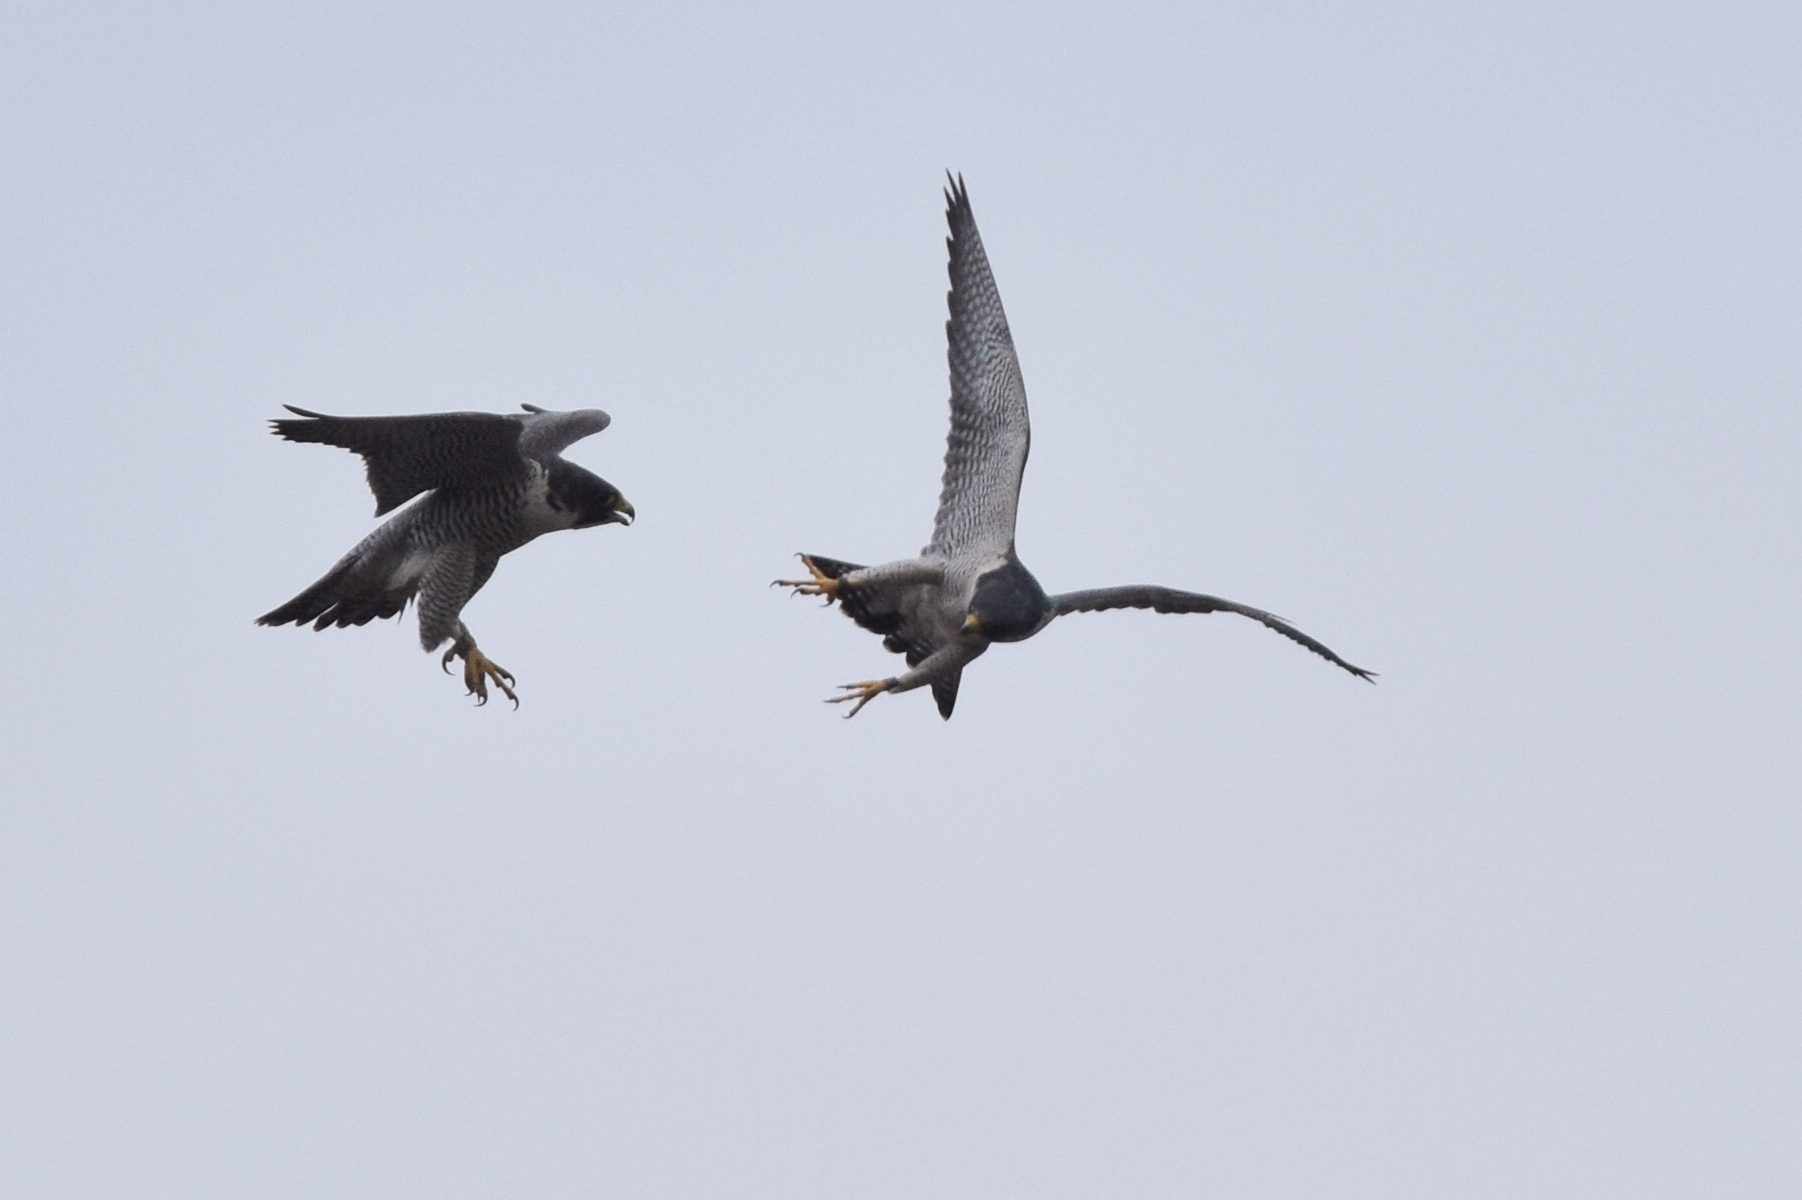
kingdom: Animalia
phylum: Chordata
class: Aves
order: Falconiformes
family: Falconidae
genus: Falco
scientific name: Falco peregrinus
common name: Peregrine falcon
